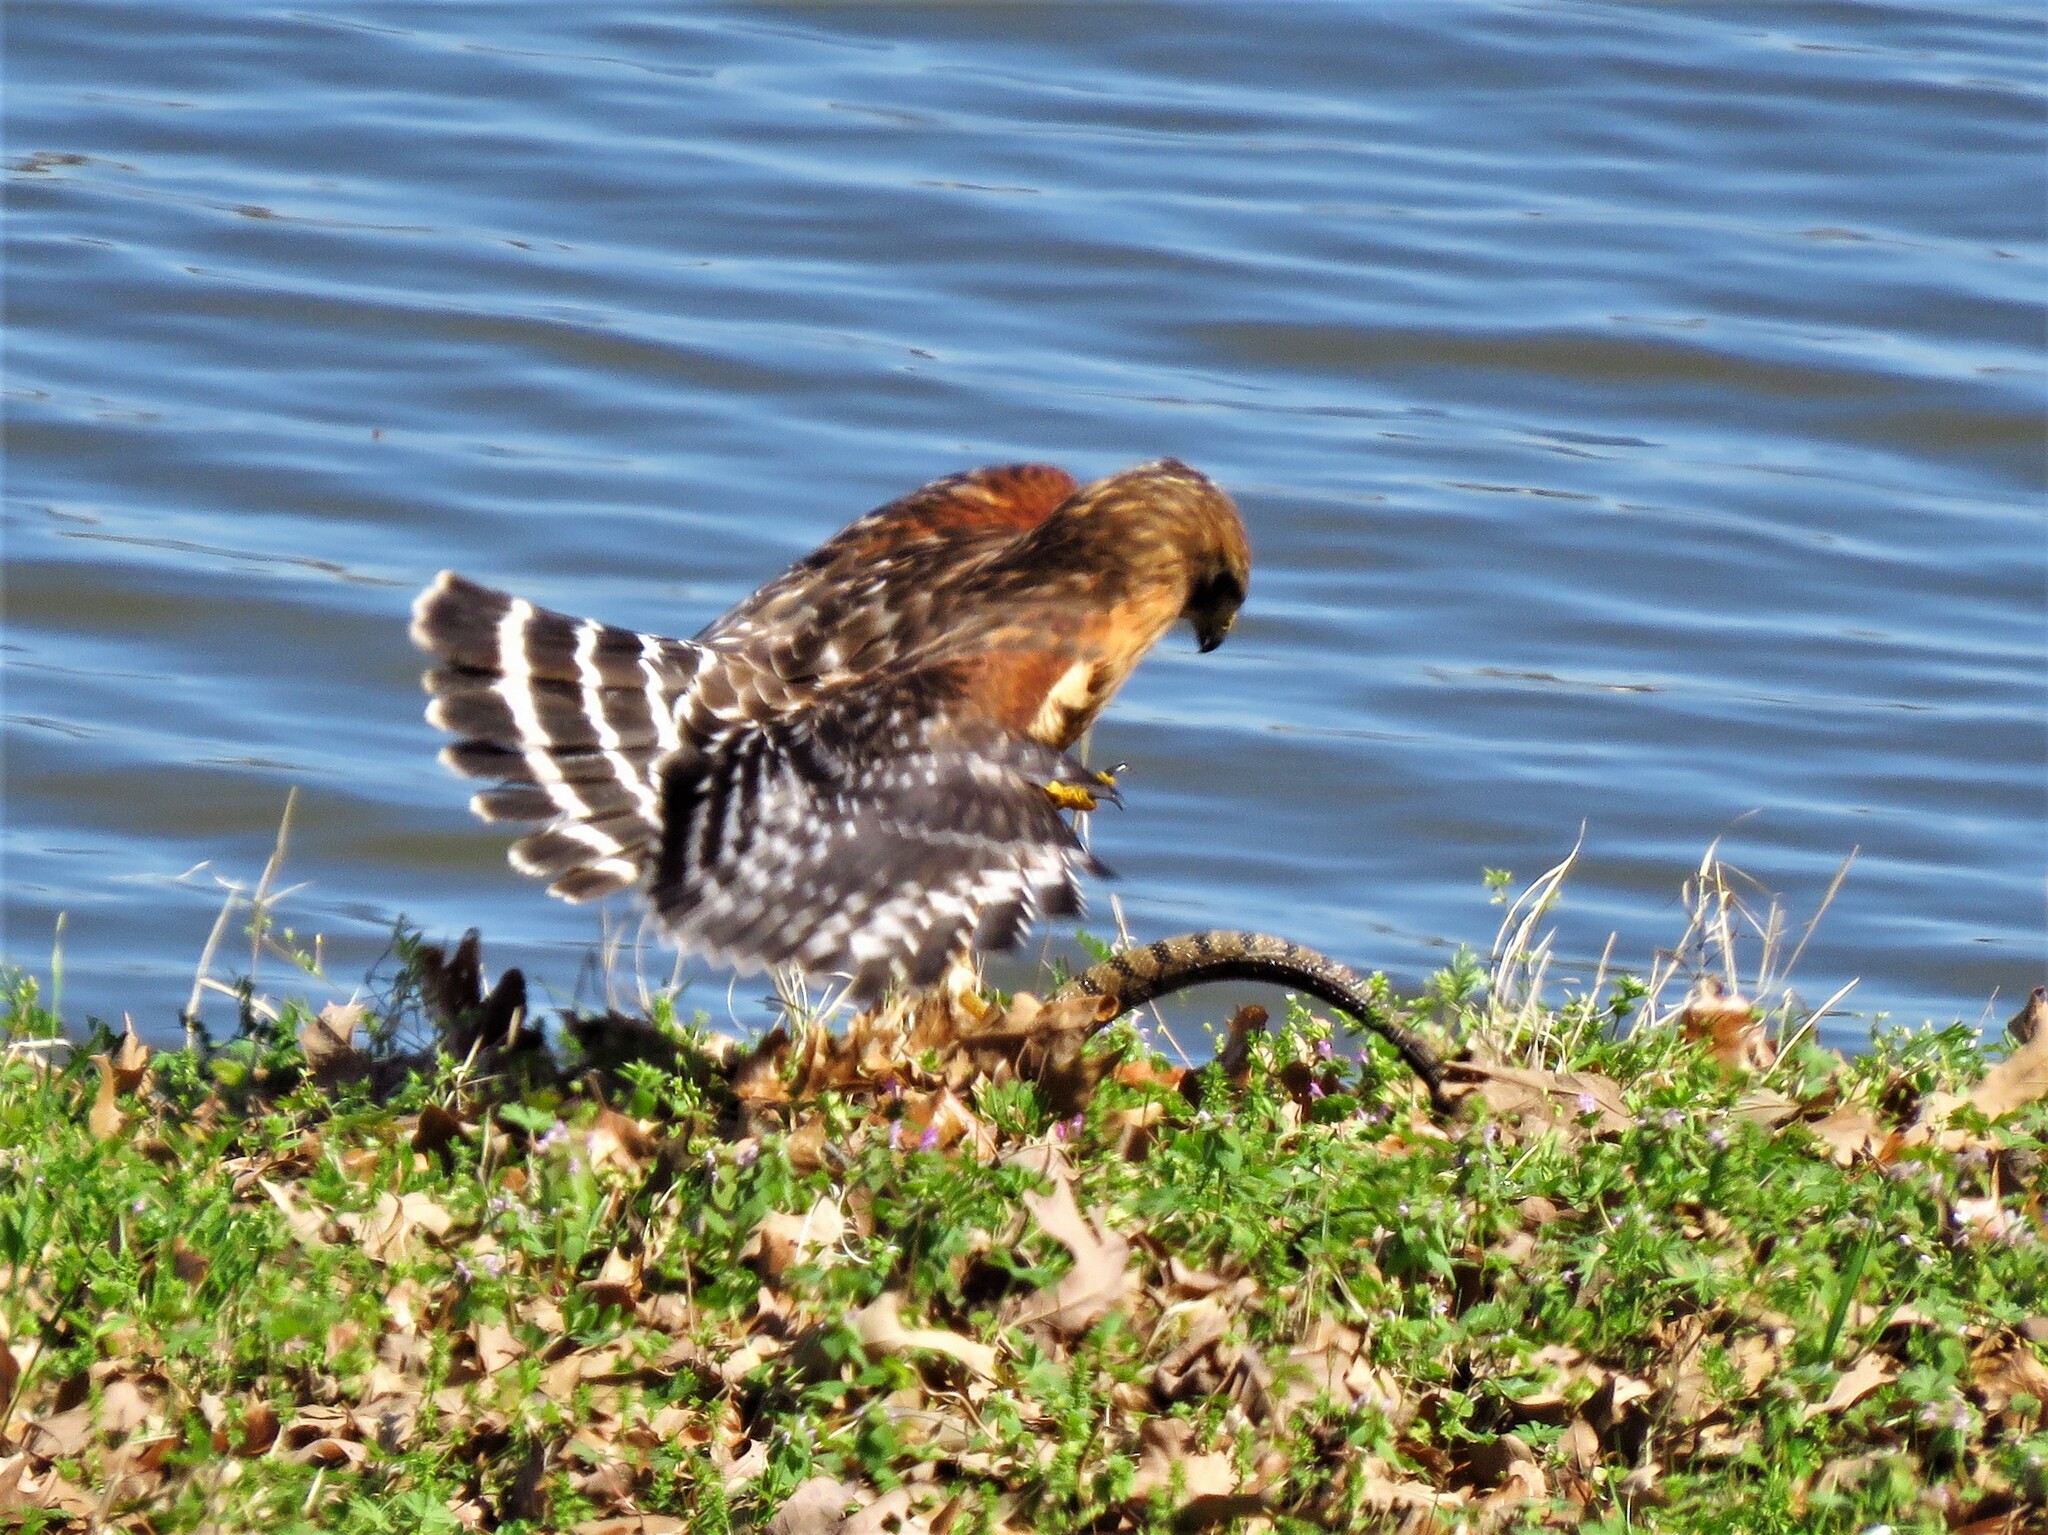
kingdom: Animalia
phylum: Chordata
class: Aves
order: Accipitriformes
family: Accipitridae
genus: Buteo
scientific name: Buteo lineatus
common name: Red-shouldered hawk
